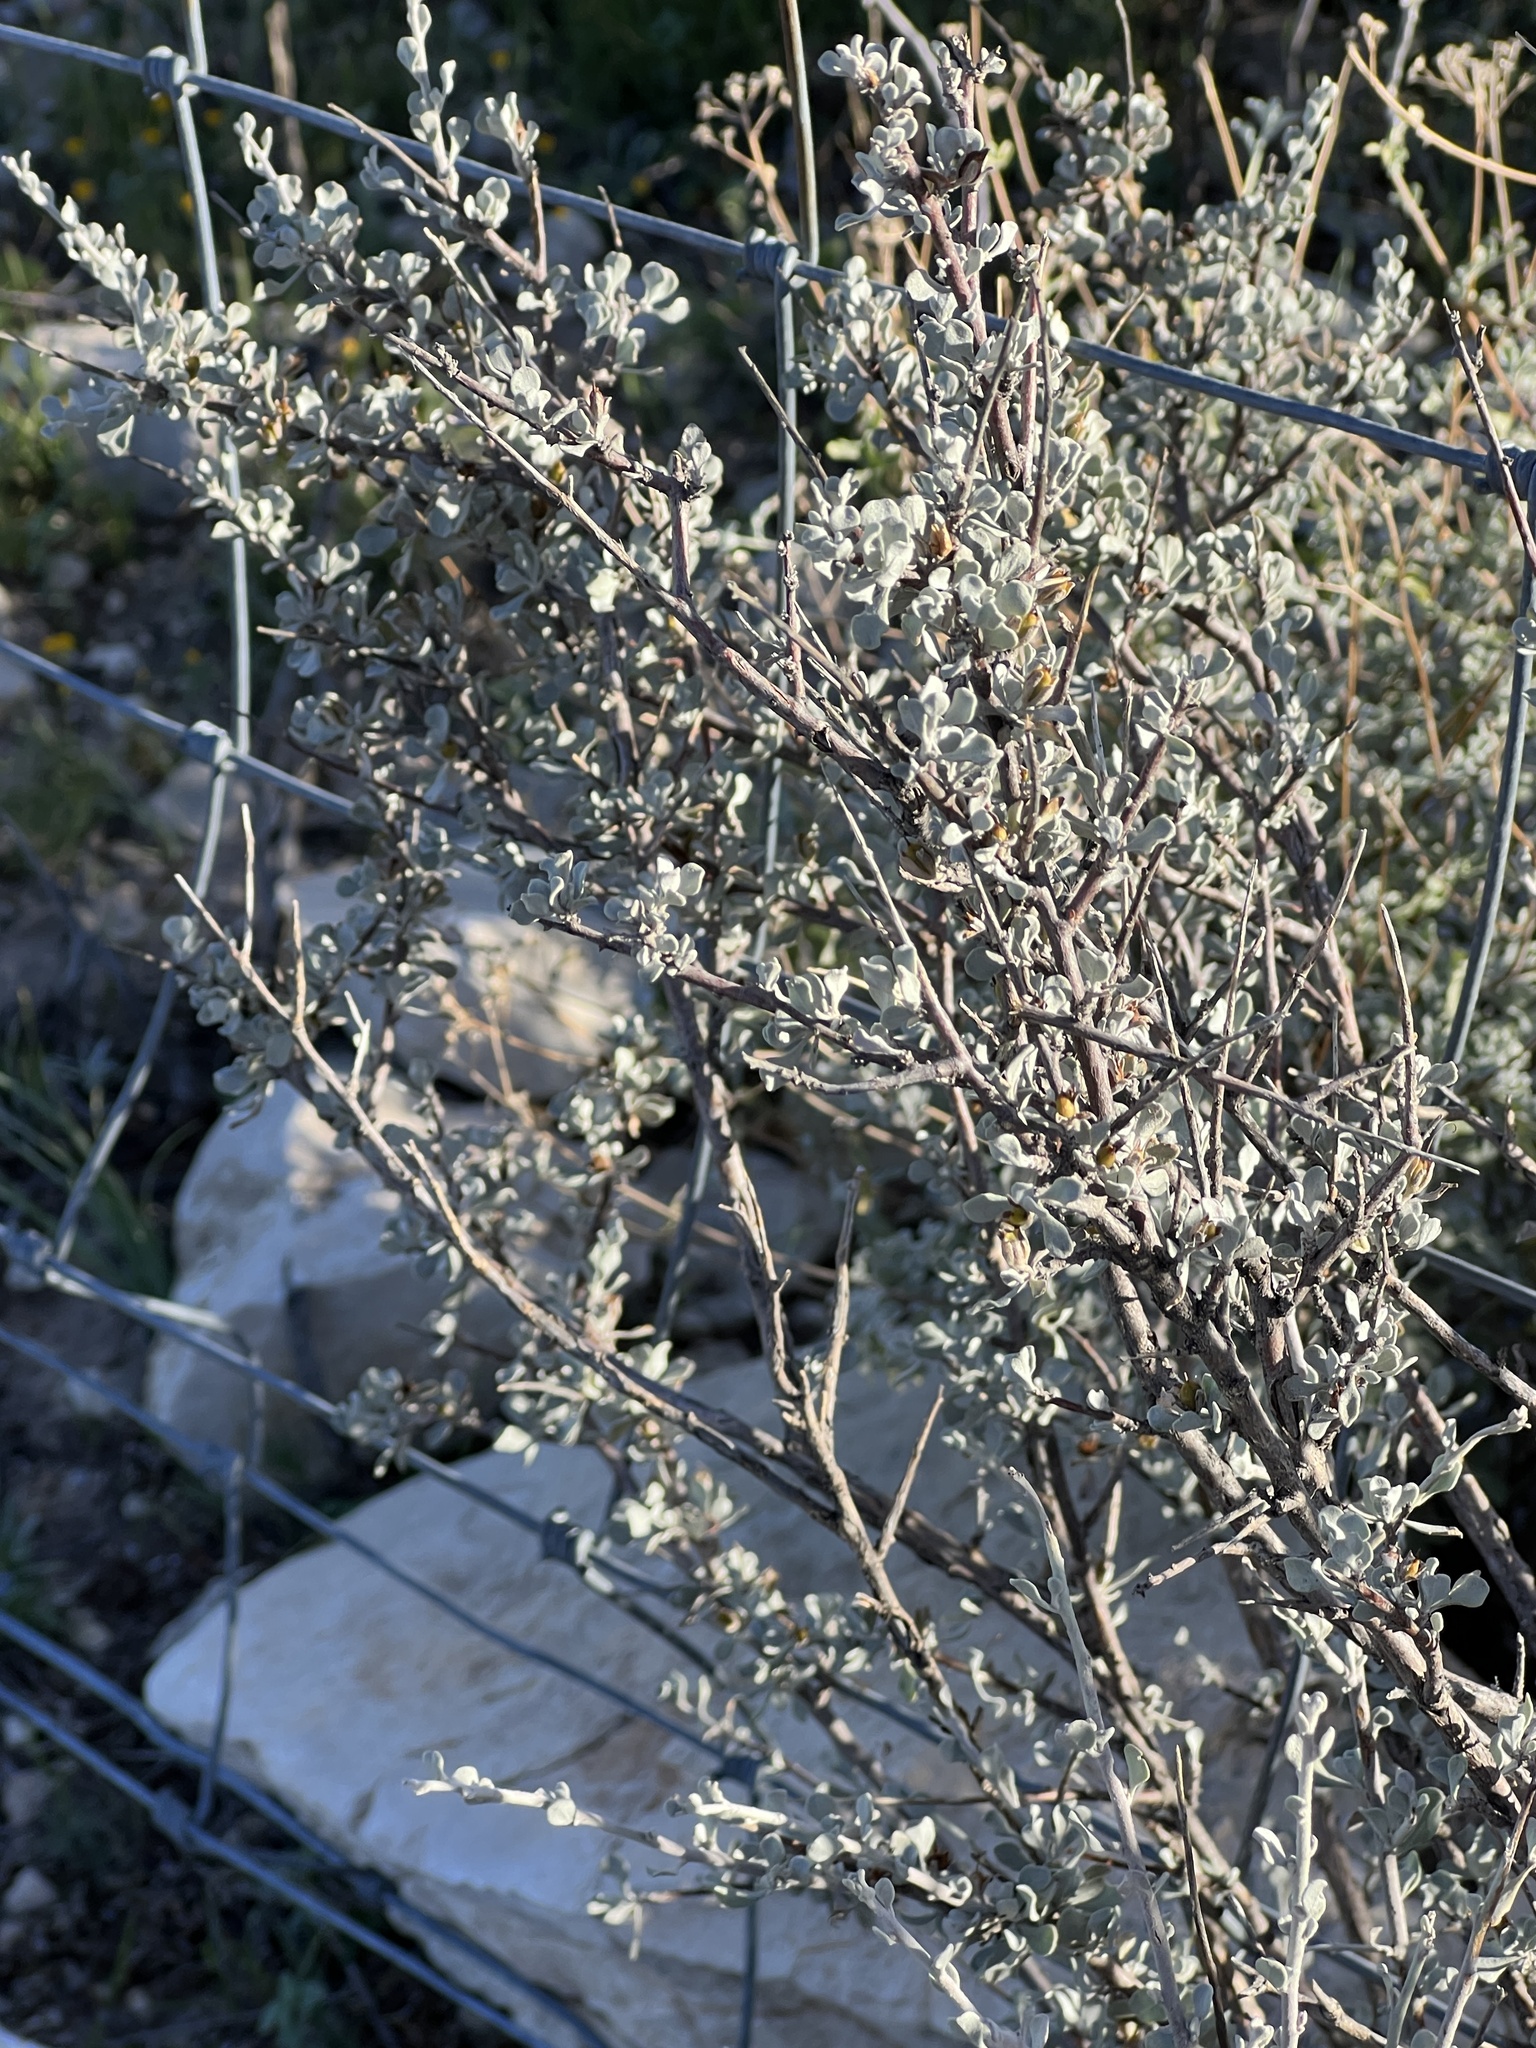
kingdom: Plantae
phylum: Tracheophyta
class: Magnoliopsida
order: Lamiales
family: Scrophulariaceae
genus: Leucophyllum
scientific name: Leucophyllum minus
